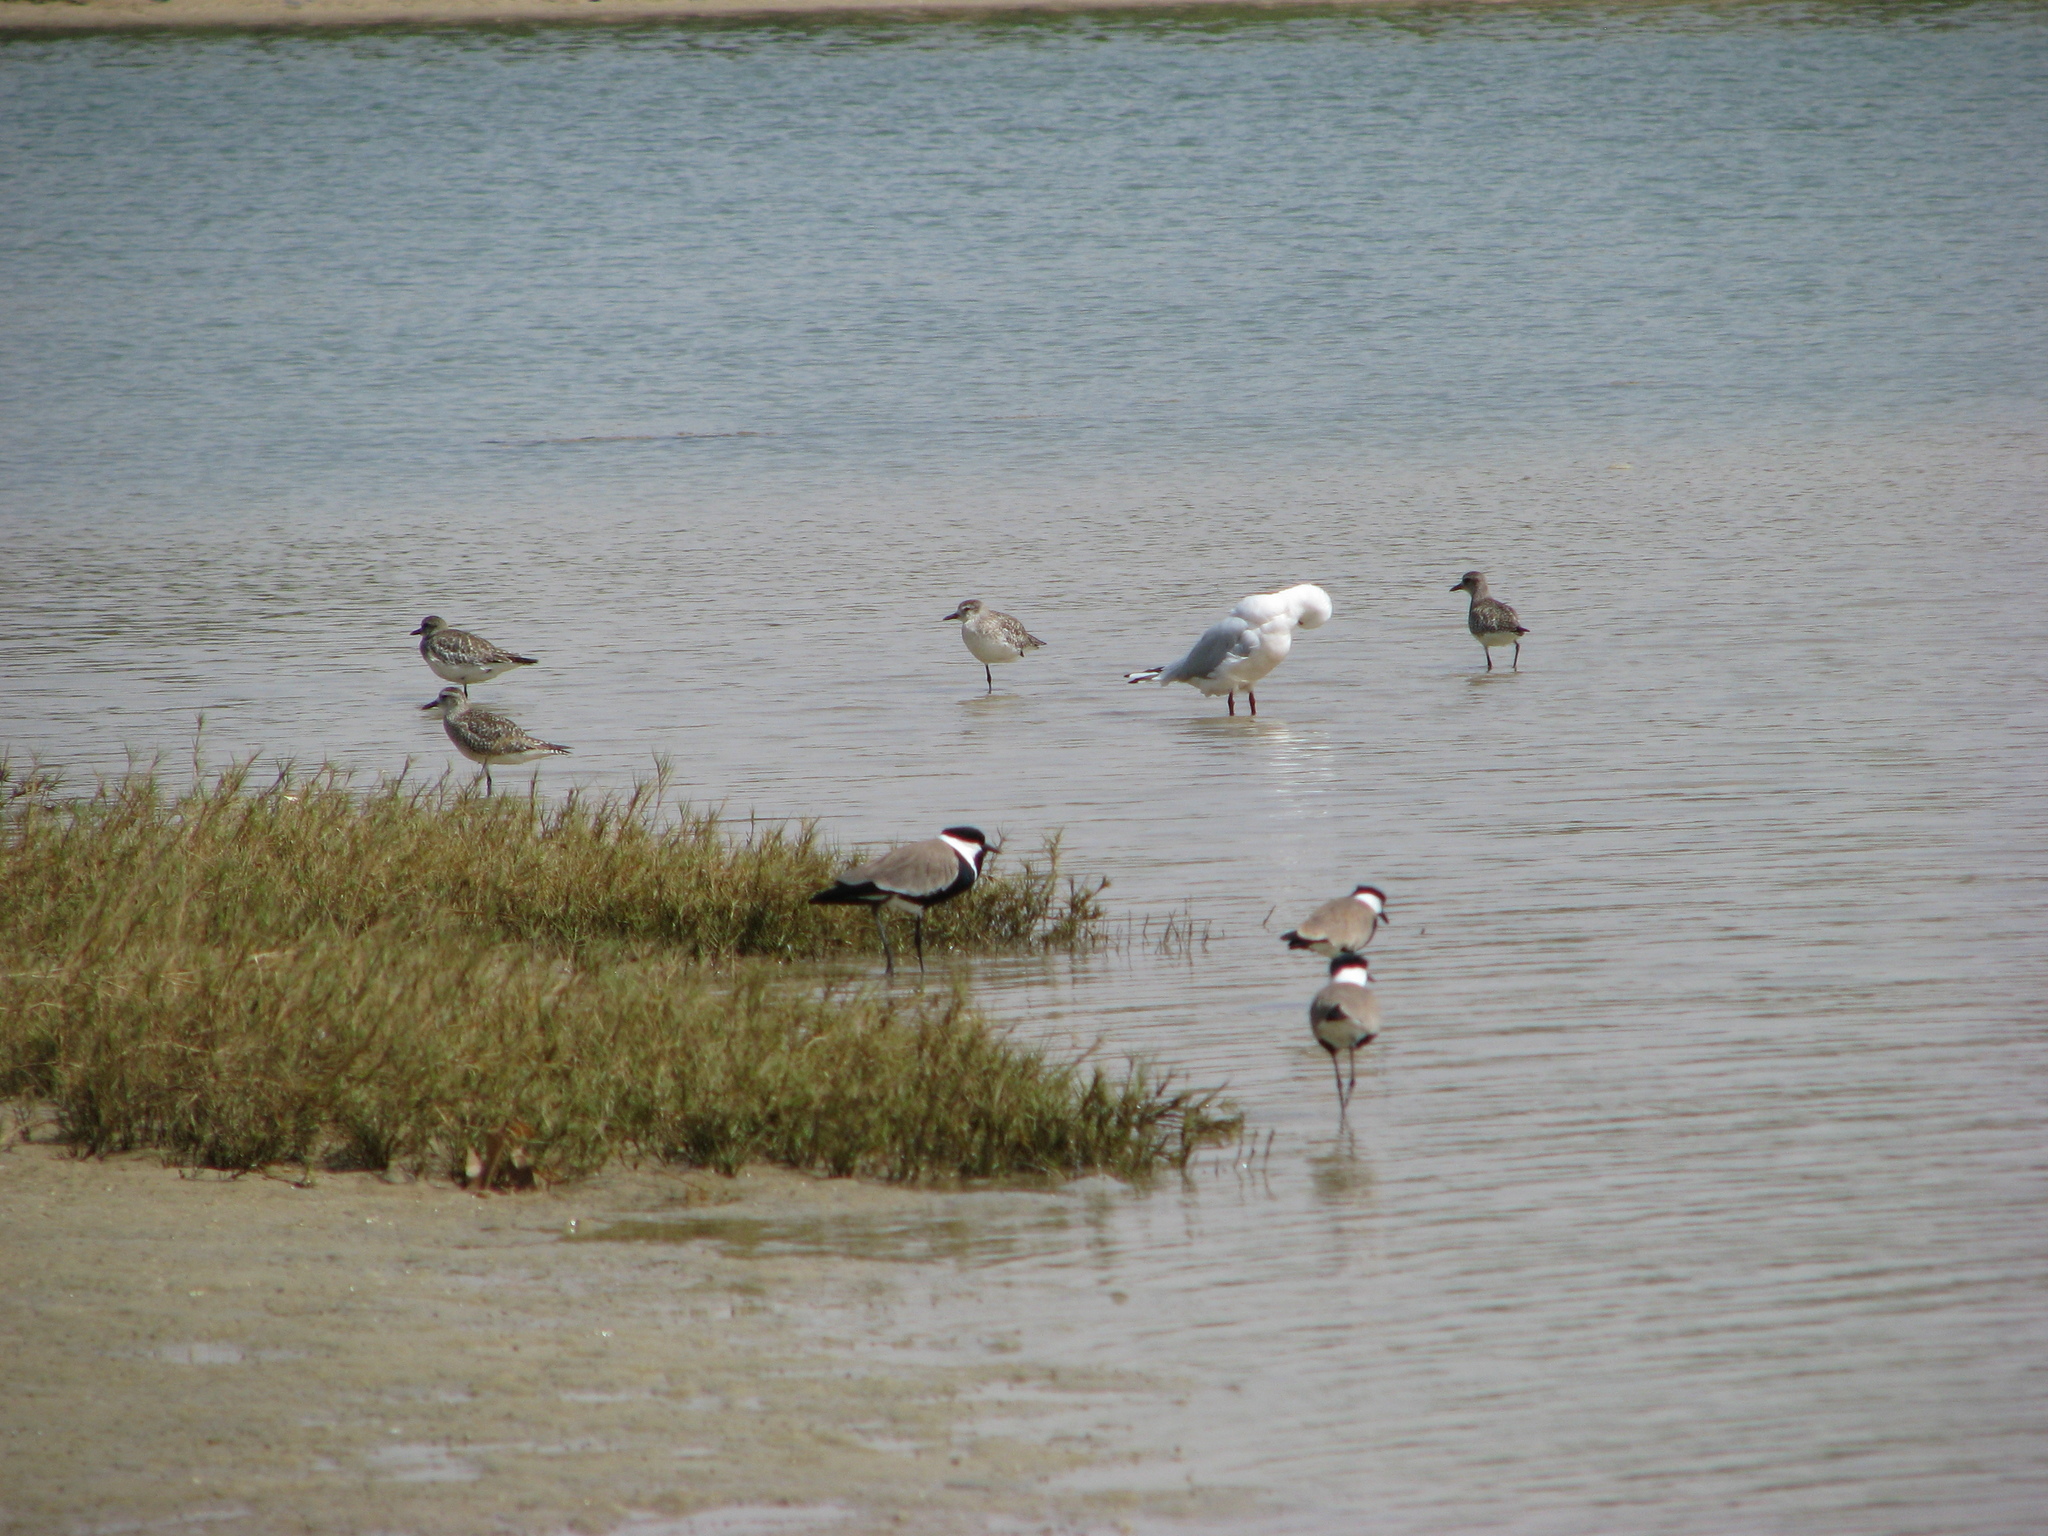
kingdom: Animalia
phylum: Chordata
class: Aves
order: Charadriiformes
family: Charadriidae
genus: Pluvialis
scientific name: Pluvialis squatarola
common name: Grey plover
